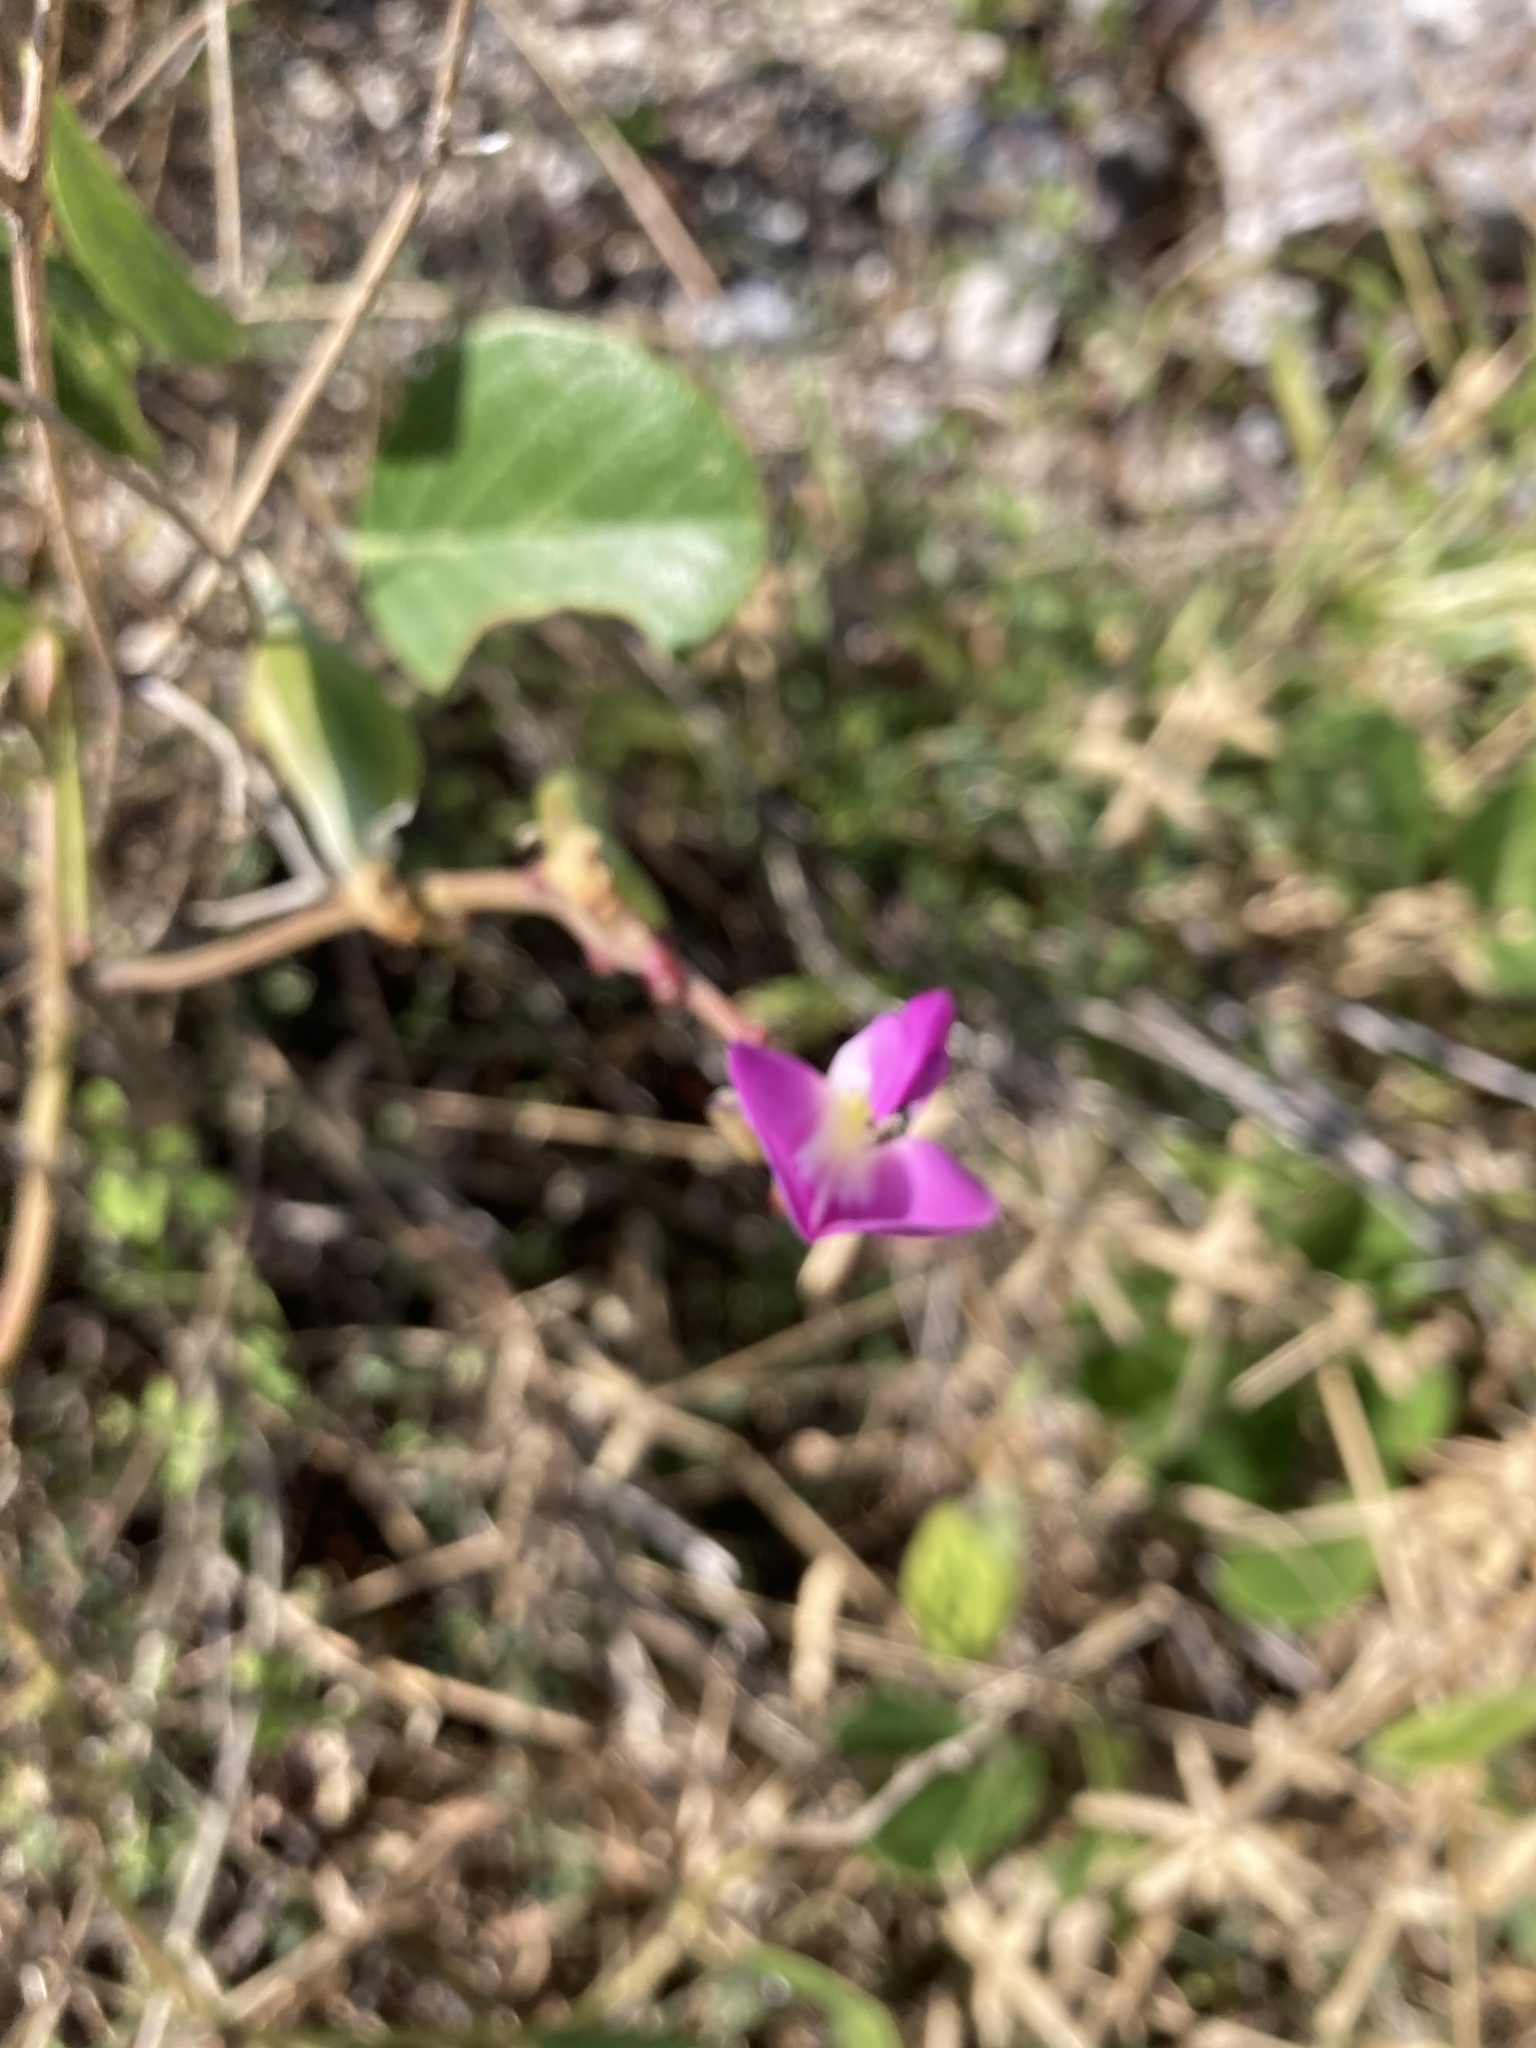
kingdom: Plantae
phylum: Tracheophyta
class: Magnoliopsida
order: Fabales
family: Fabaceae
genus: Canavalia
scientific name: Canavalia rosea
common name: Beach-bean
